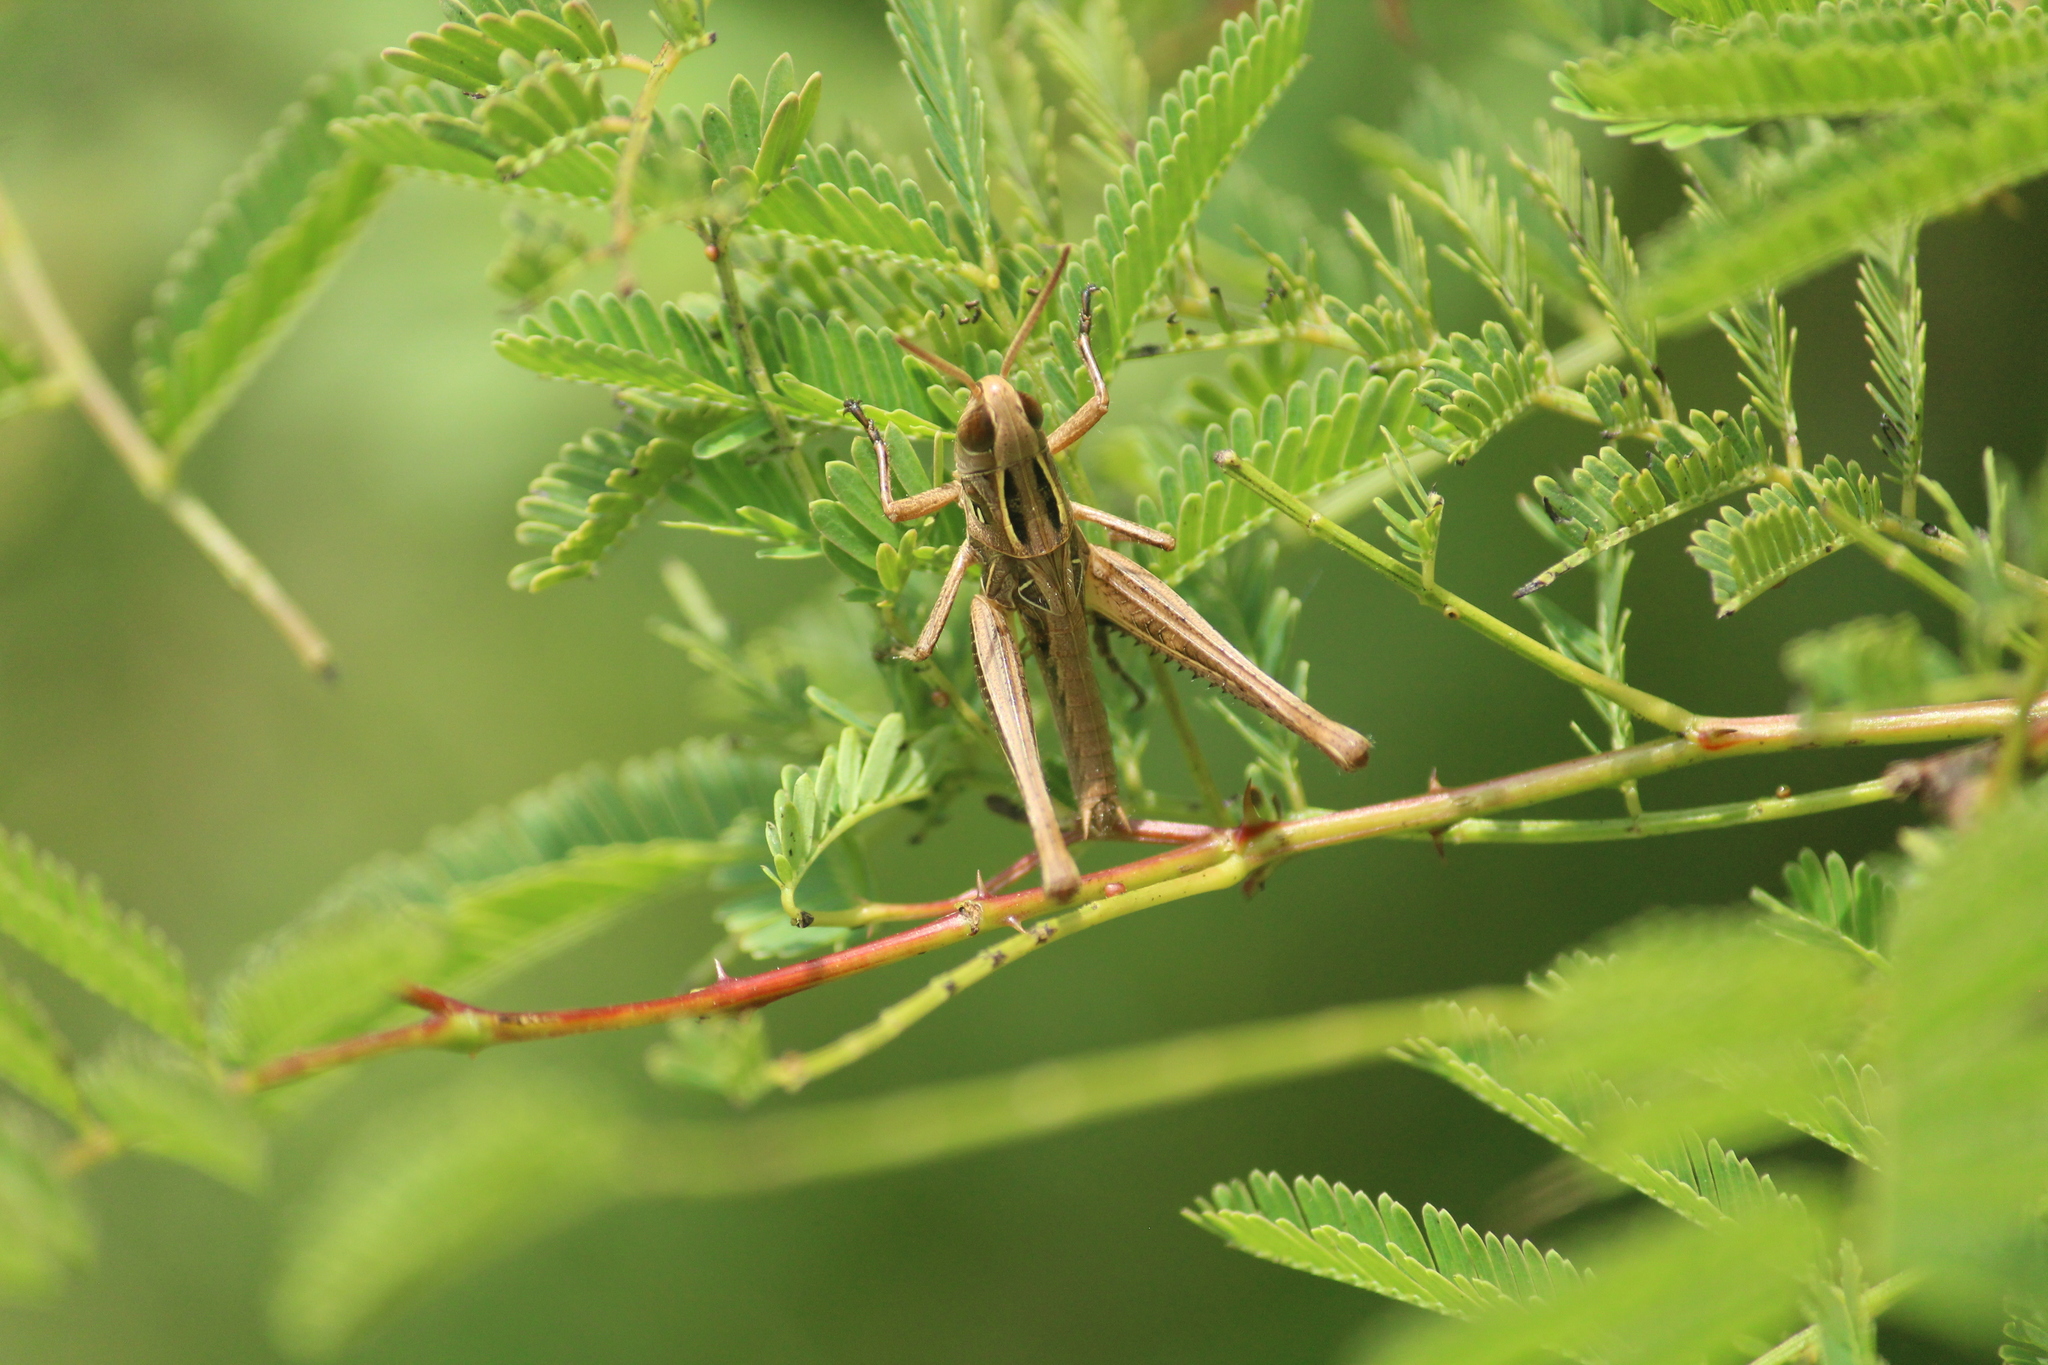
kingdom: Animalia
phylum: Arthropoda
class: Insecta
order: Orthoptera
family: Acrididae
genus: Tylotropidius
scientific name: Tylotropidius varicornis
